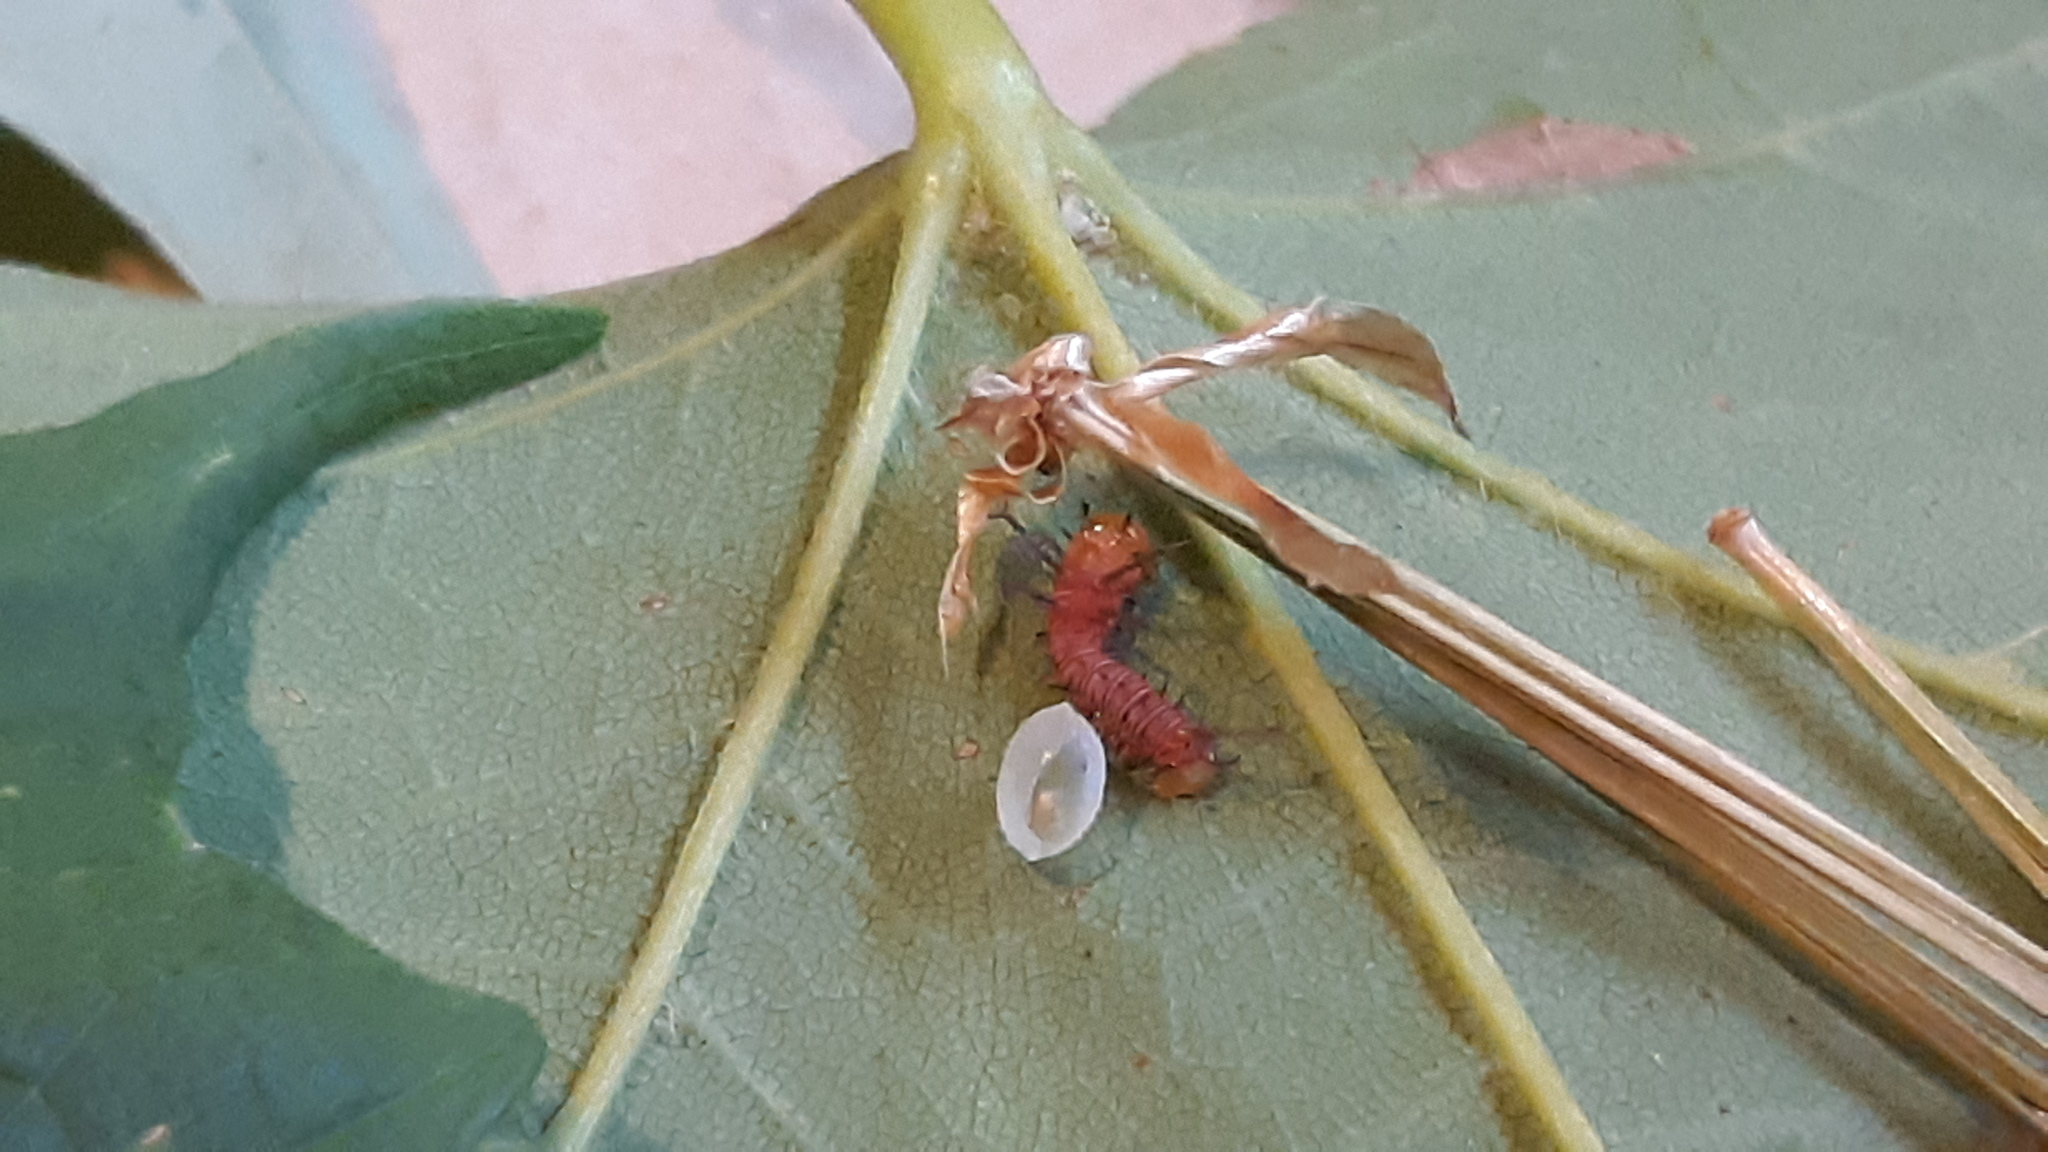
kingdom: Animalia
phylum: Arthropoda
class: Insecta
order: Lepidoptera
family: Saturniidae
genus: Eacles
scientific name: Eacles imperialis
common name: Imperial moth
